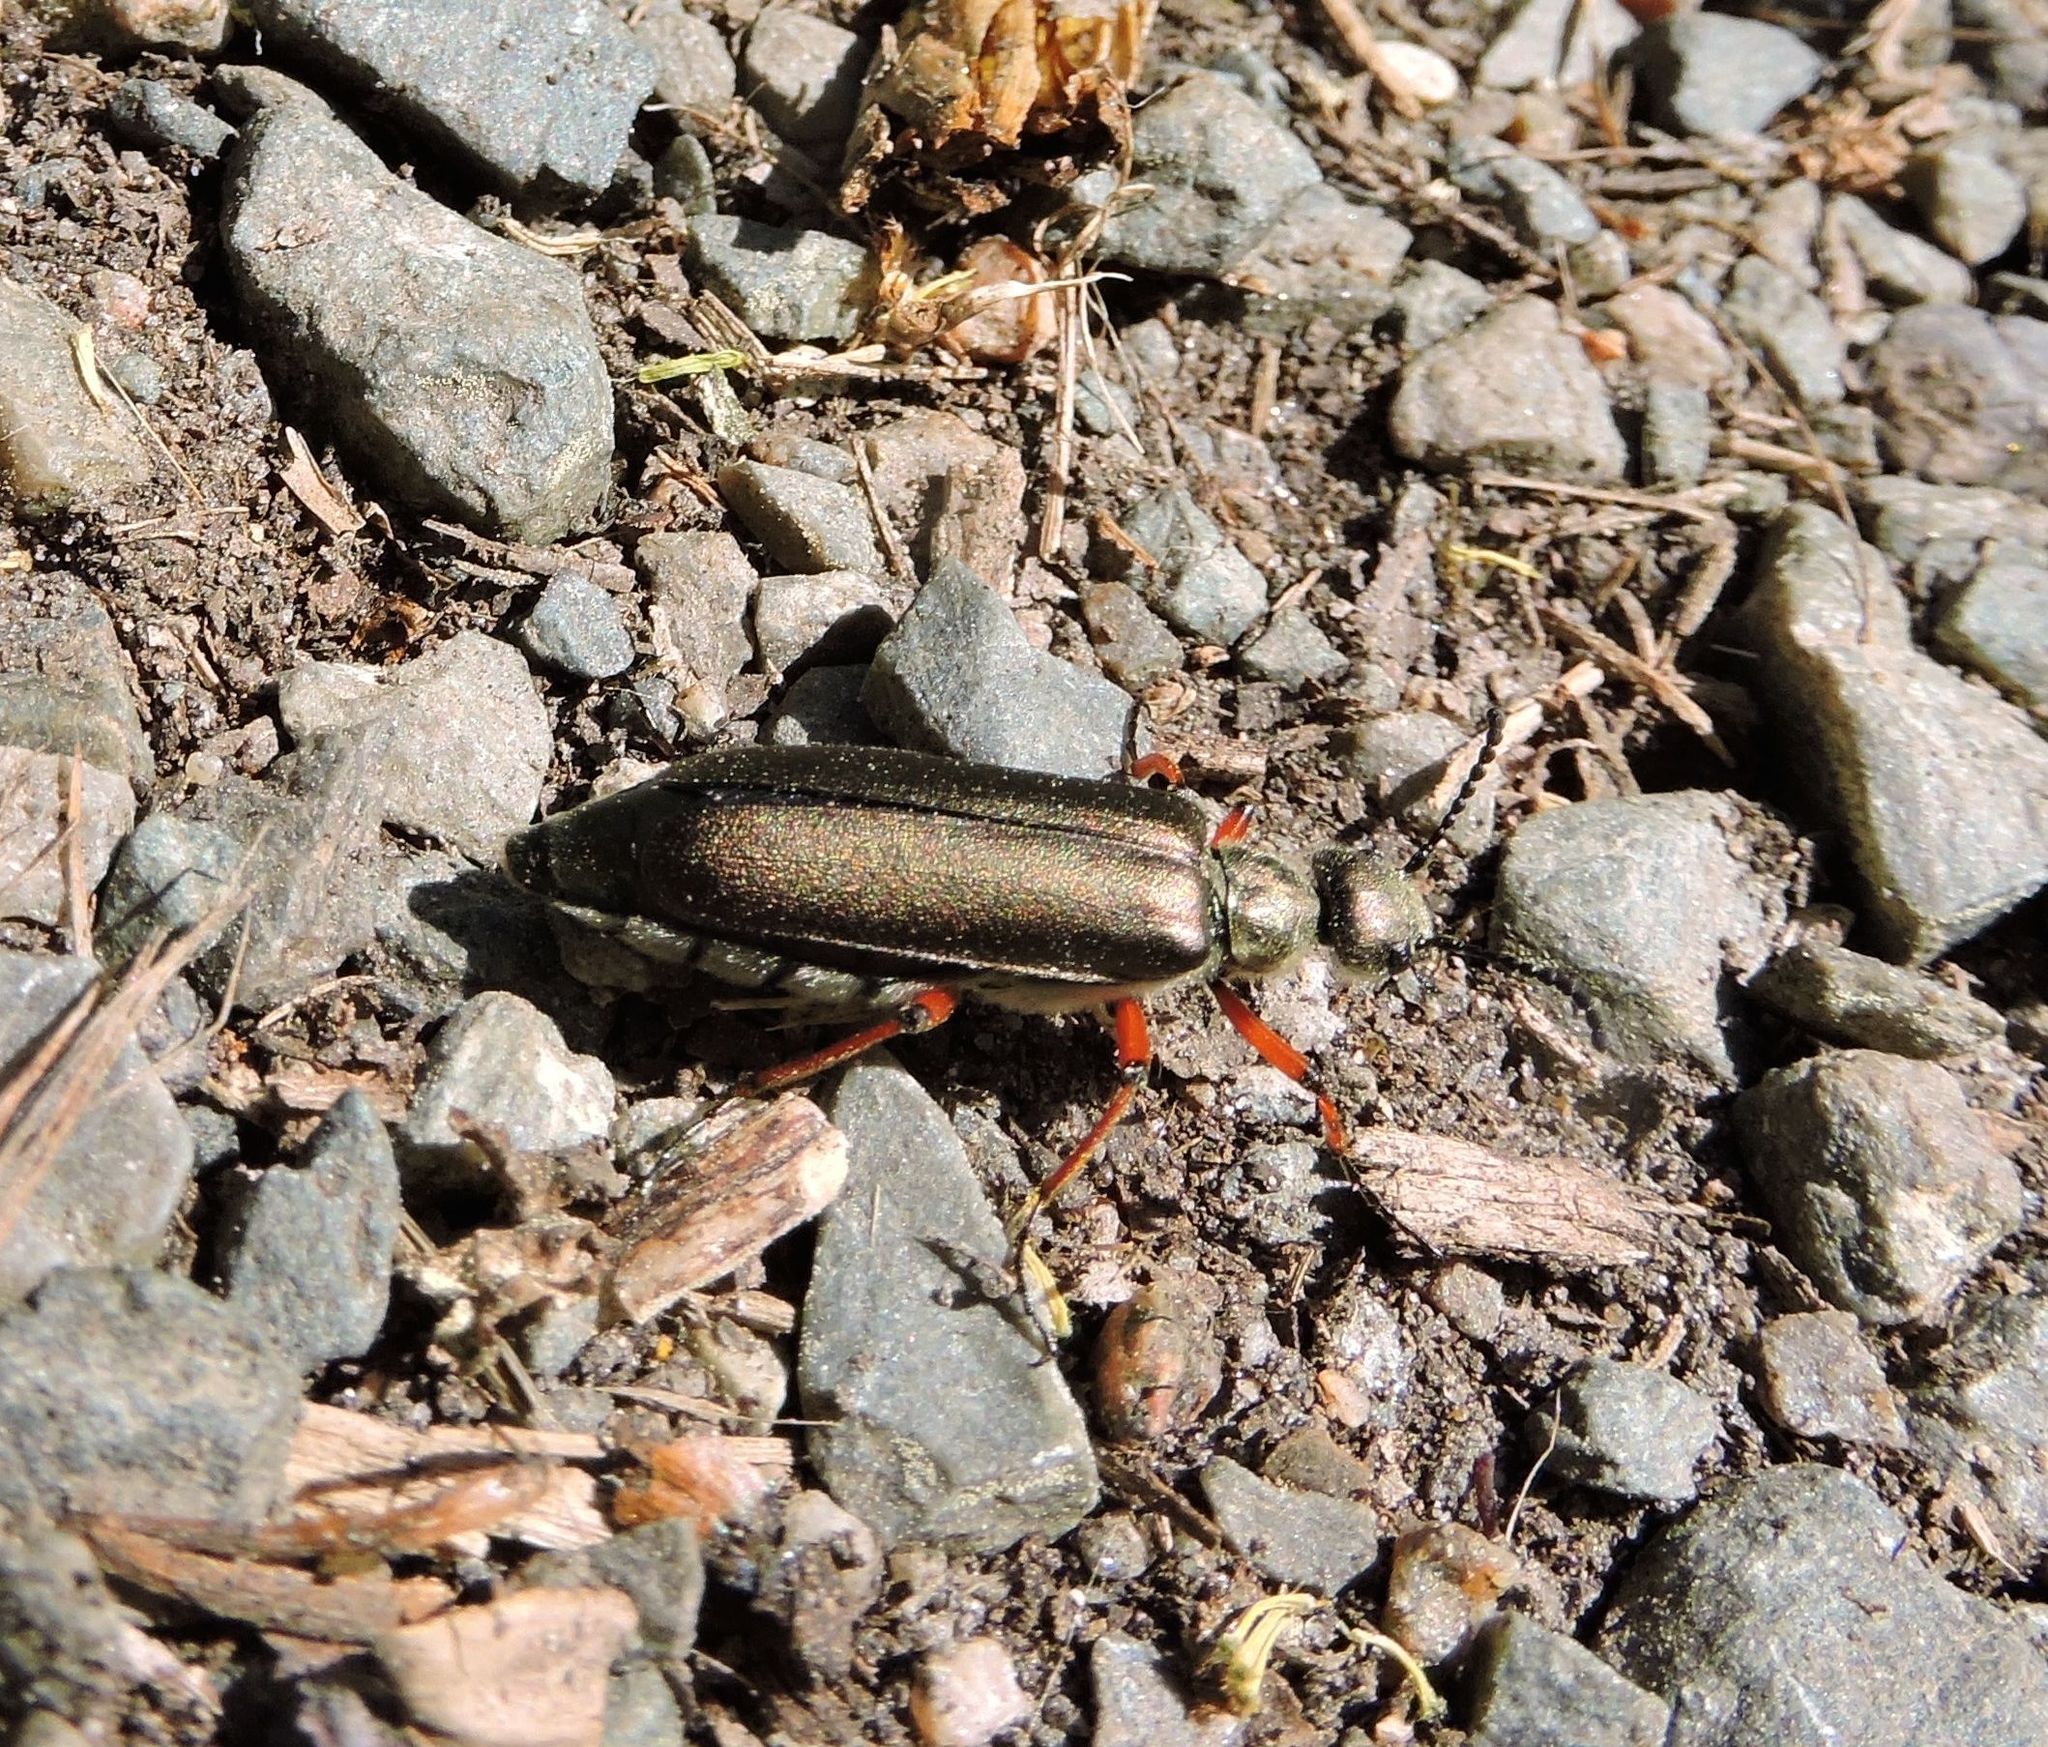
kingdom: Animalia
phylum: Arthropoda
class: Insecta
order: Coleoptera
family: Meloidae
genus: Lytta
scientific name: Lytta aenea
